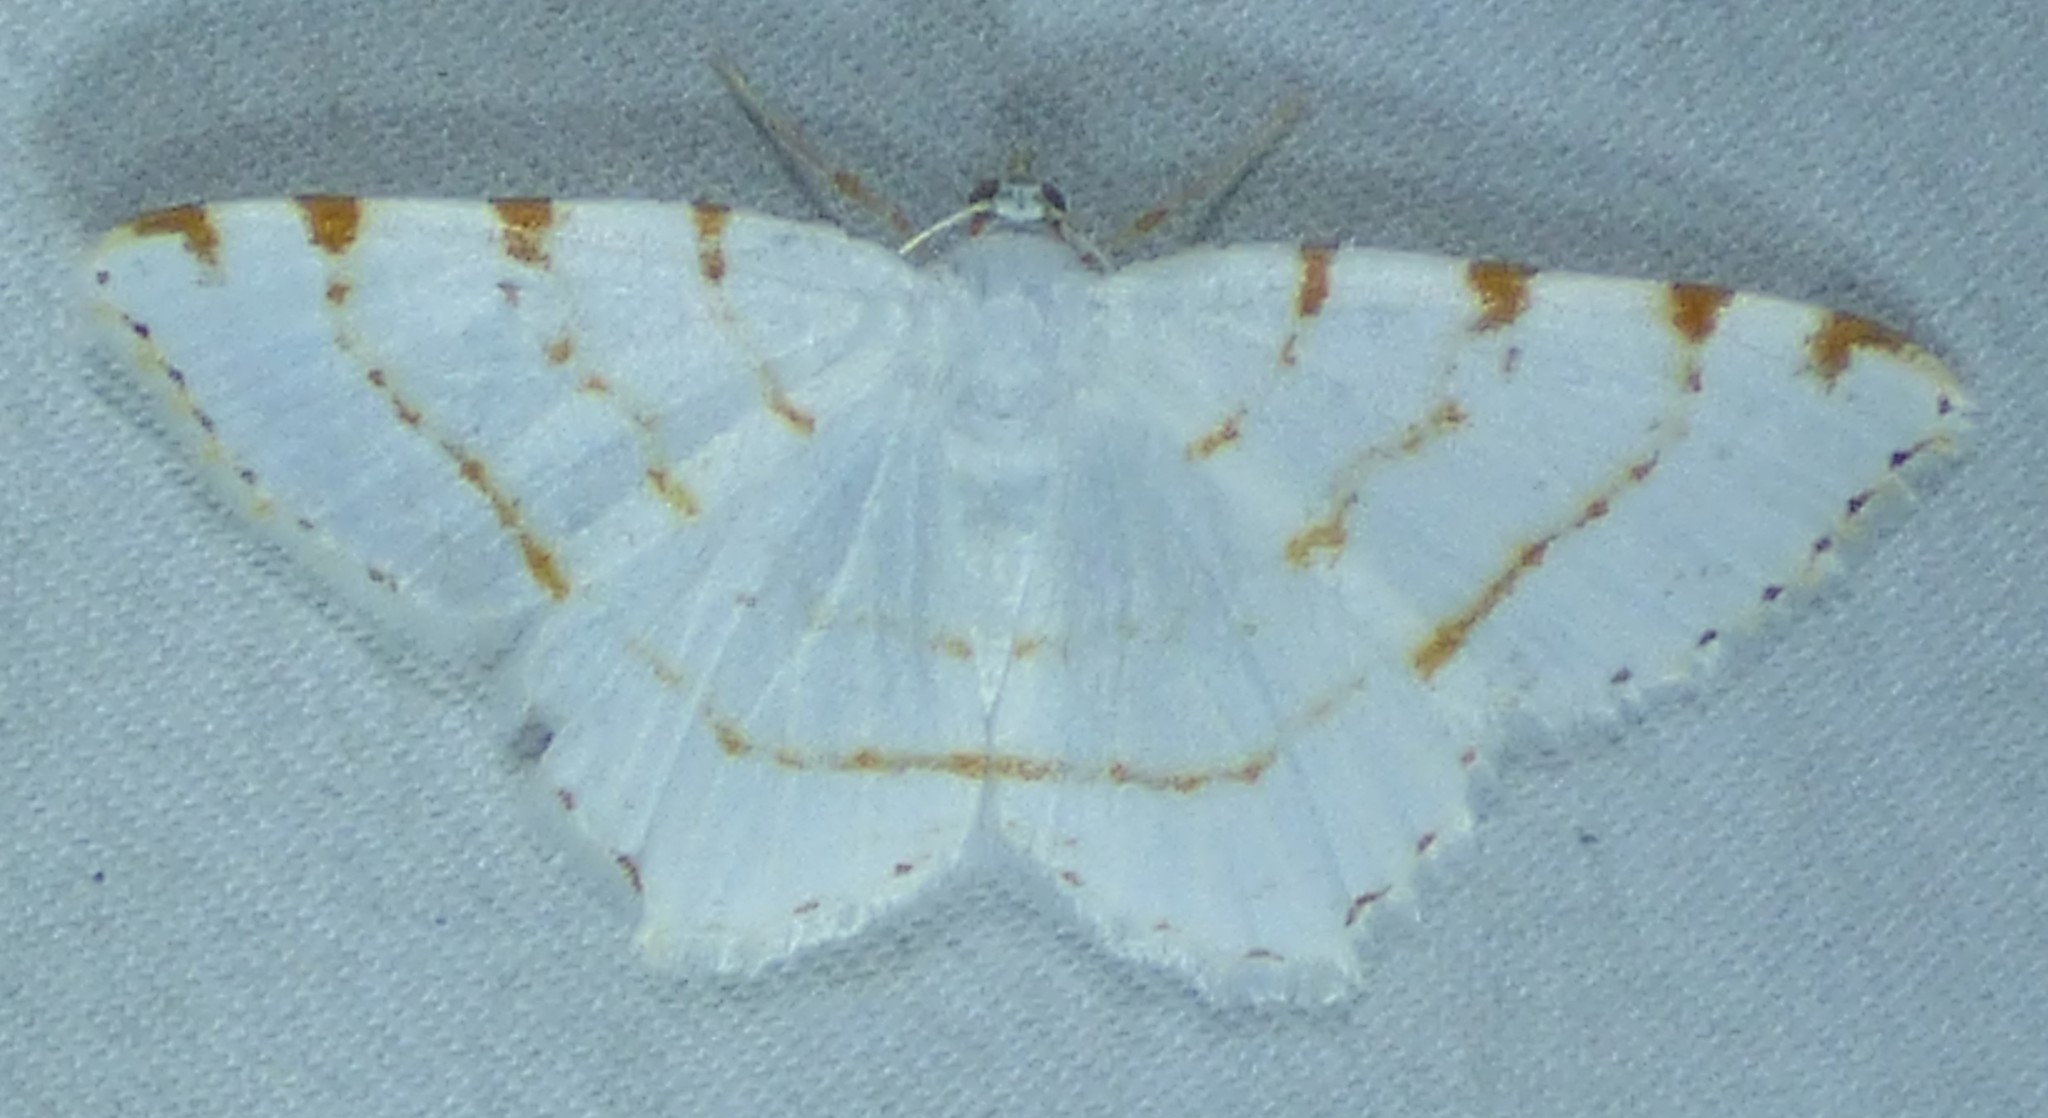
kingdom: Animalia
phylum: Arthropoda
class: Insecta
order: Lepidoptera
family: Geometridae
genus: Macaria
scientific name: Macaria pustularia
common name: Lesser maple spanworm moth
